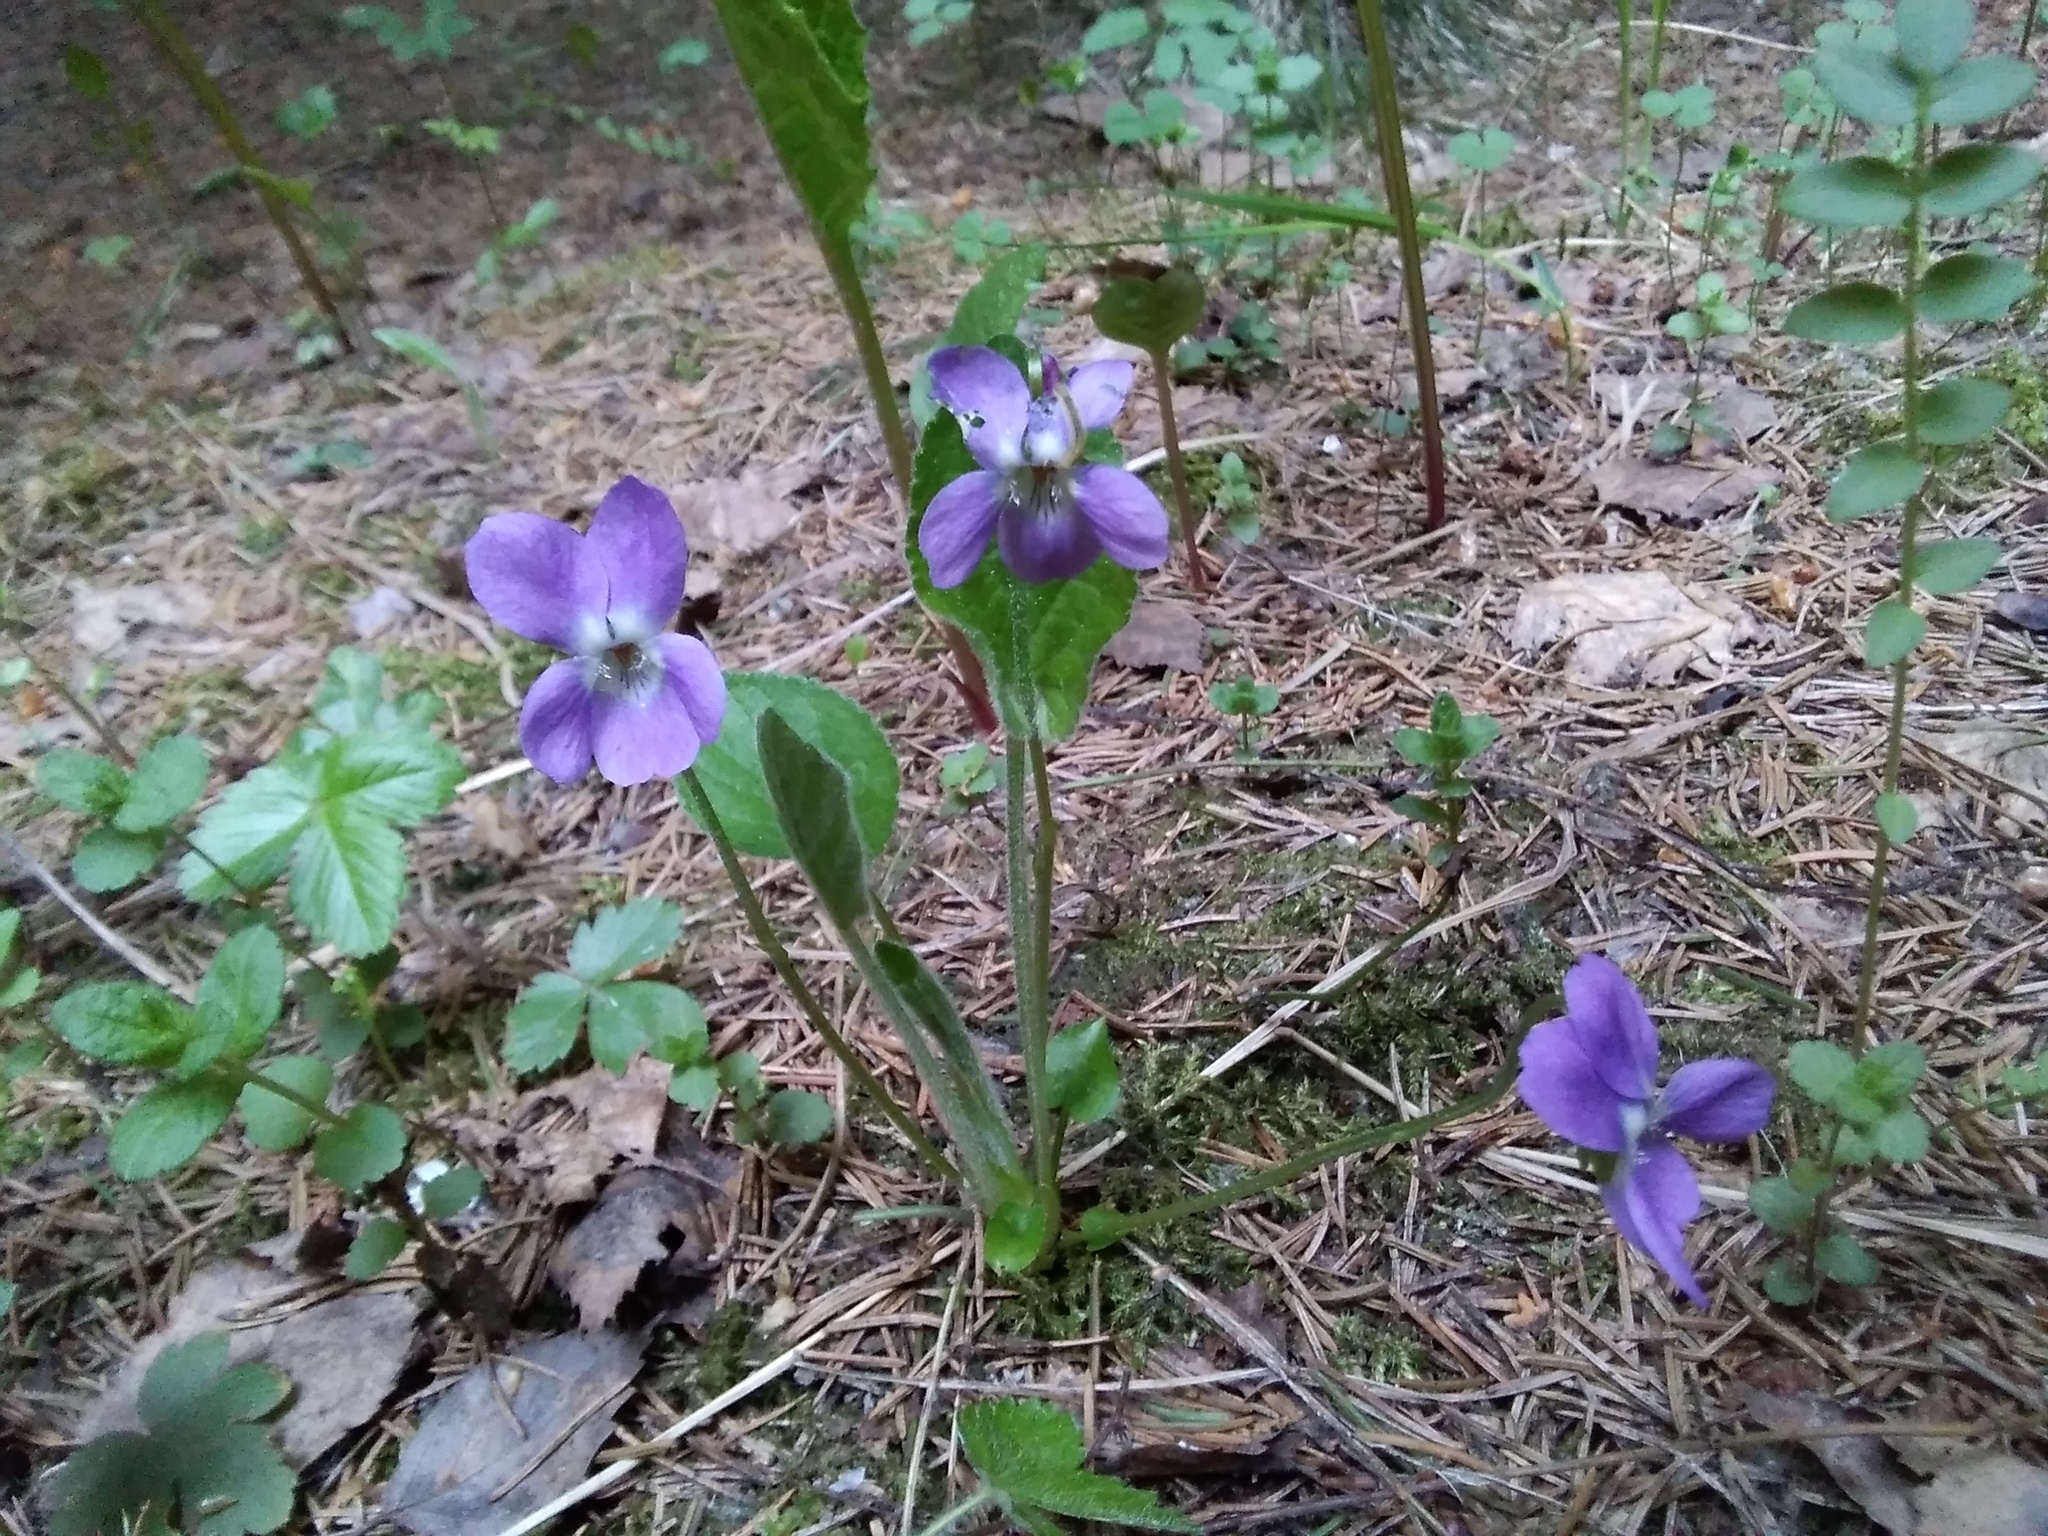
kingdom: Plantae
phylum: Tracheophyta
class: Magnoliopsida
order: Malpighiales
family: Violaceae
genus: Viola
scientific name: Viola hirta
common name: Hairy violet
